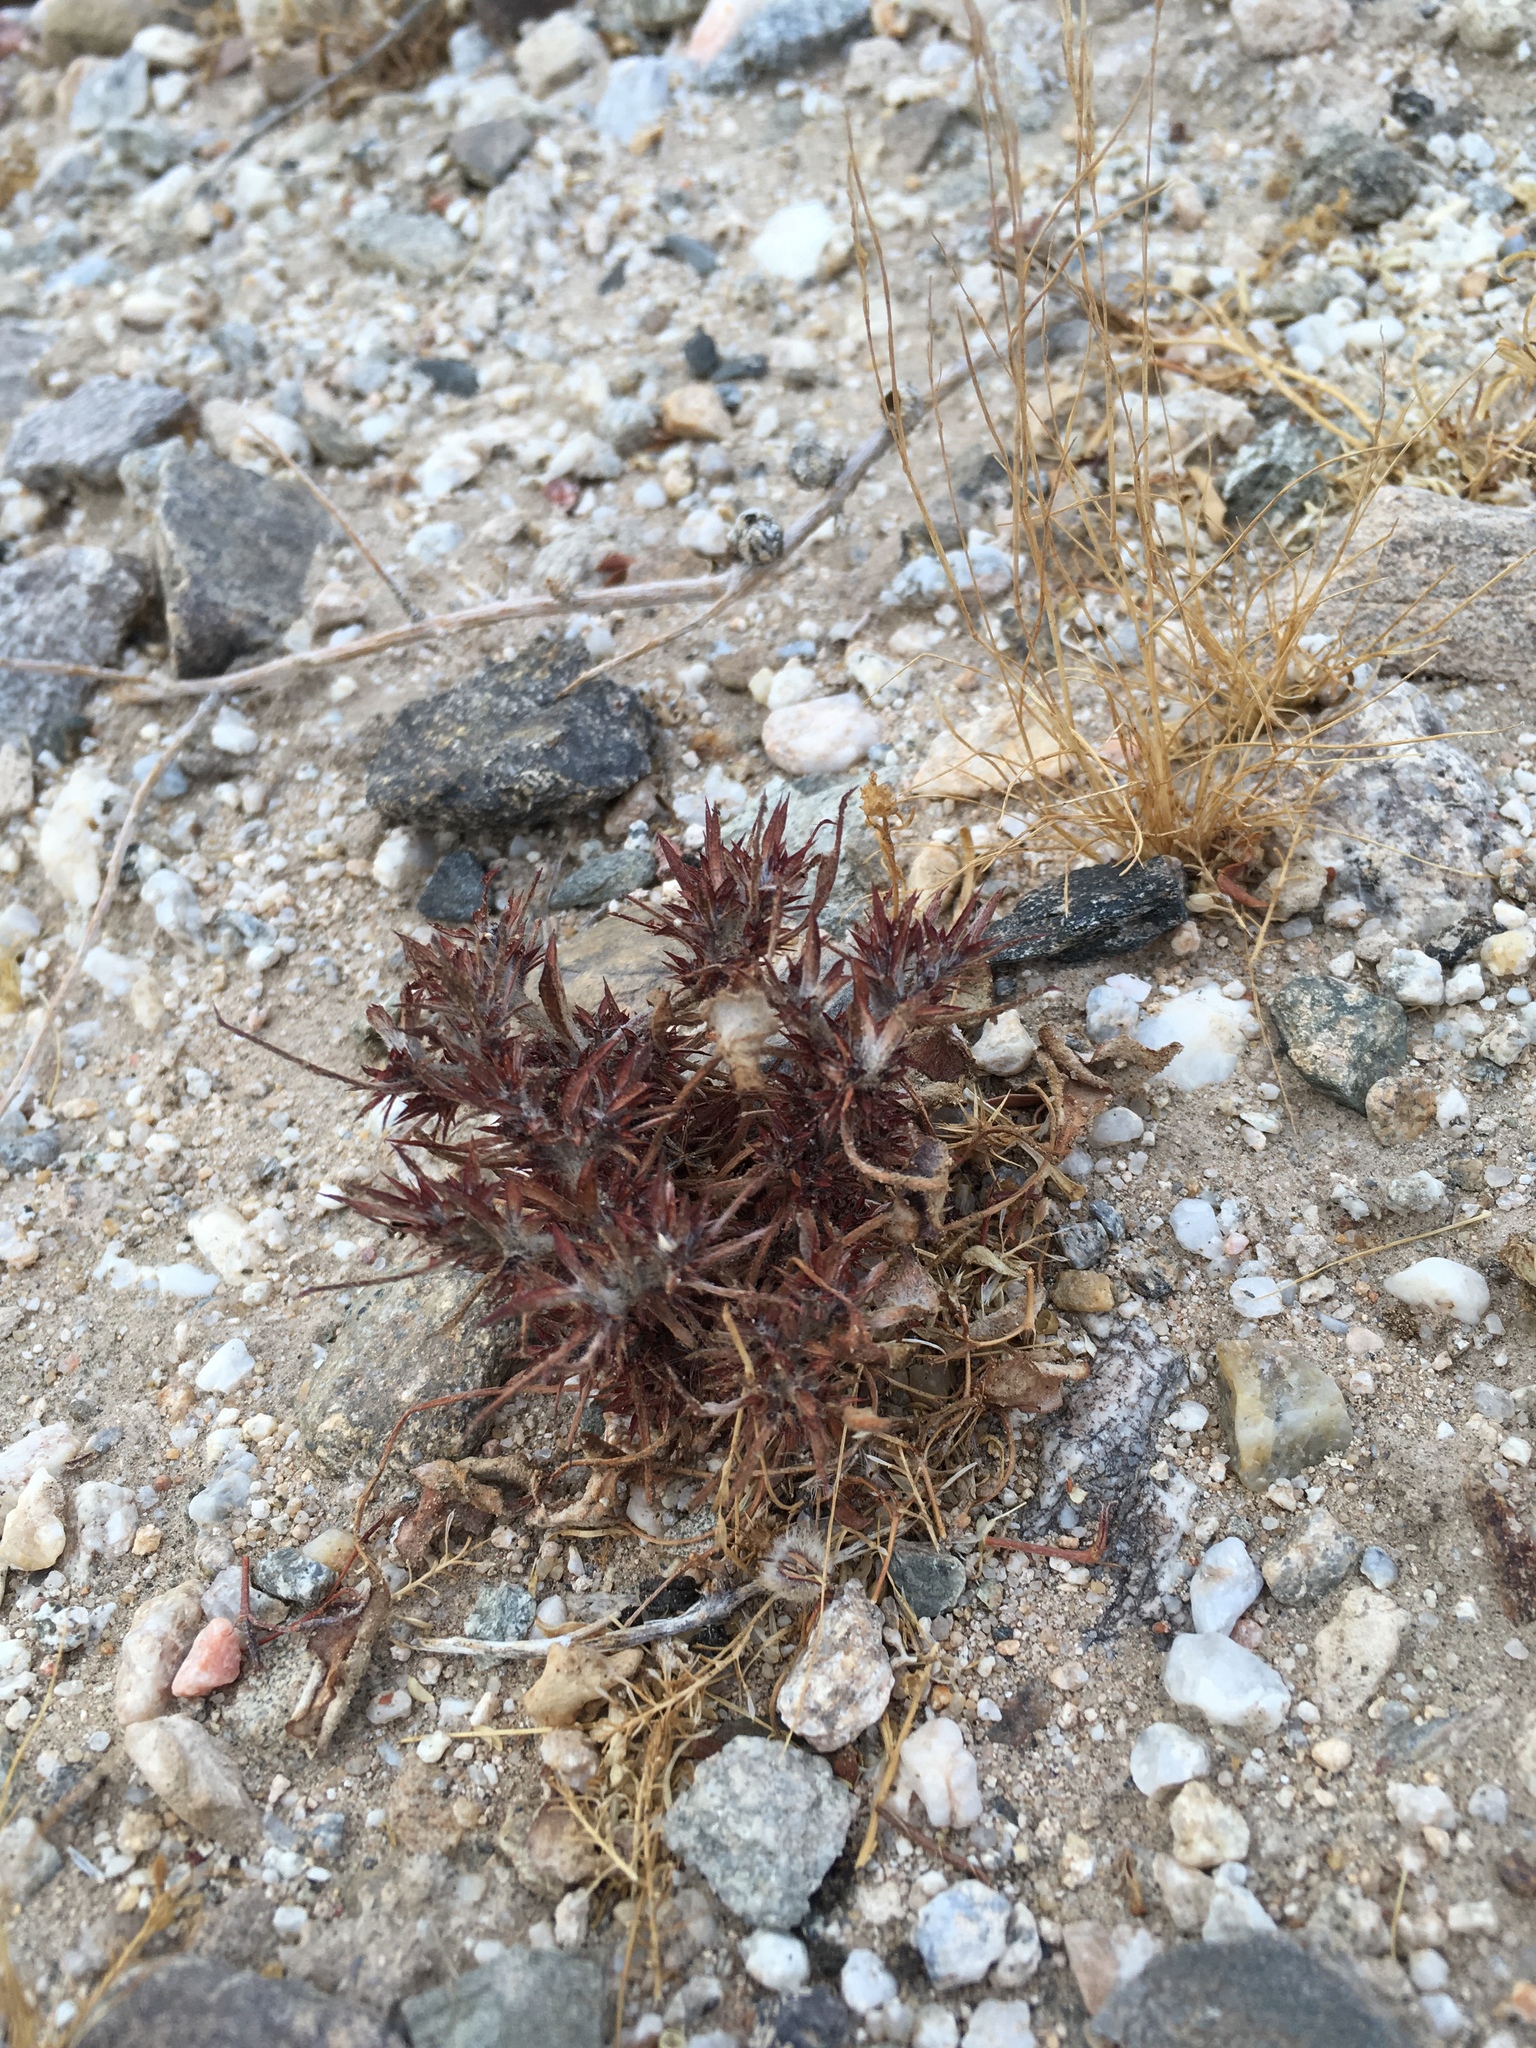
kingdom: Plantae
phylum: Tracheophyta
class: Magnoliopsida
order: Caryophyllales
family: Polygonaceae
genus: Chorizanthe
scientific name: Chorizanthe rigida
